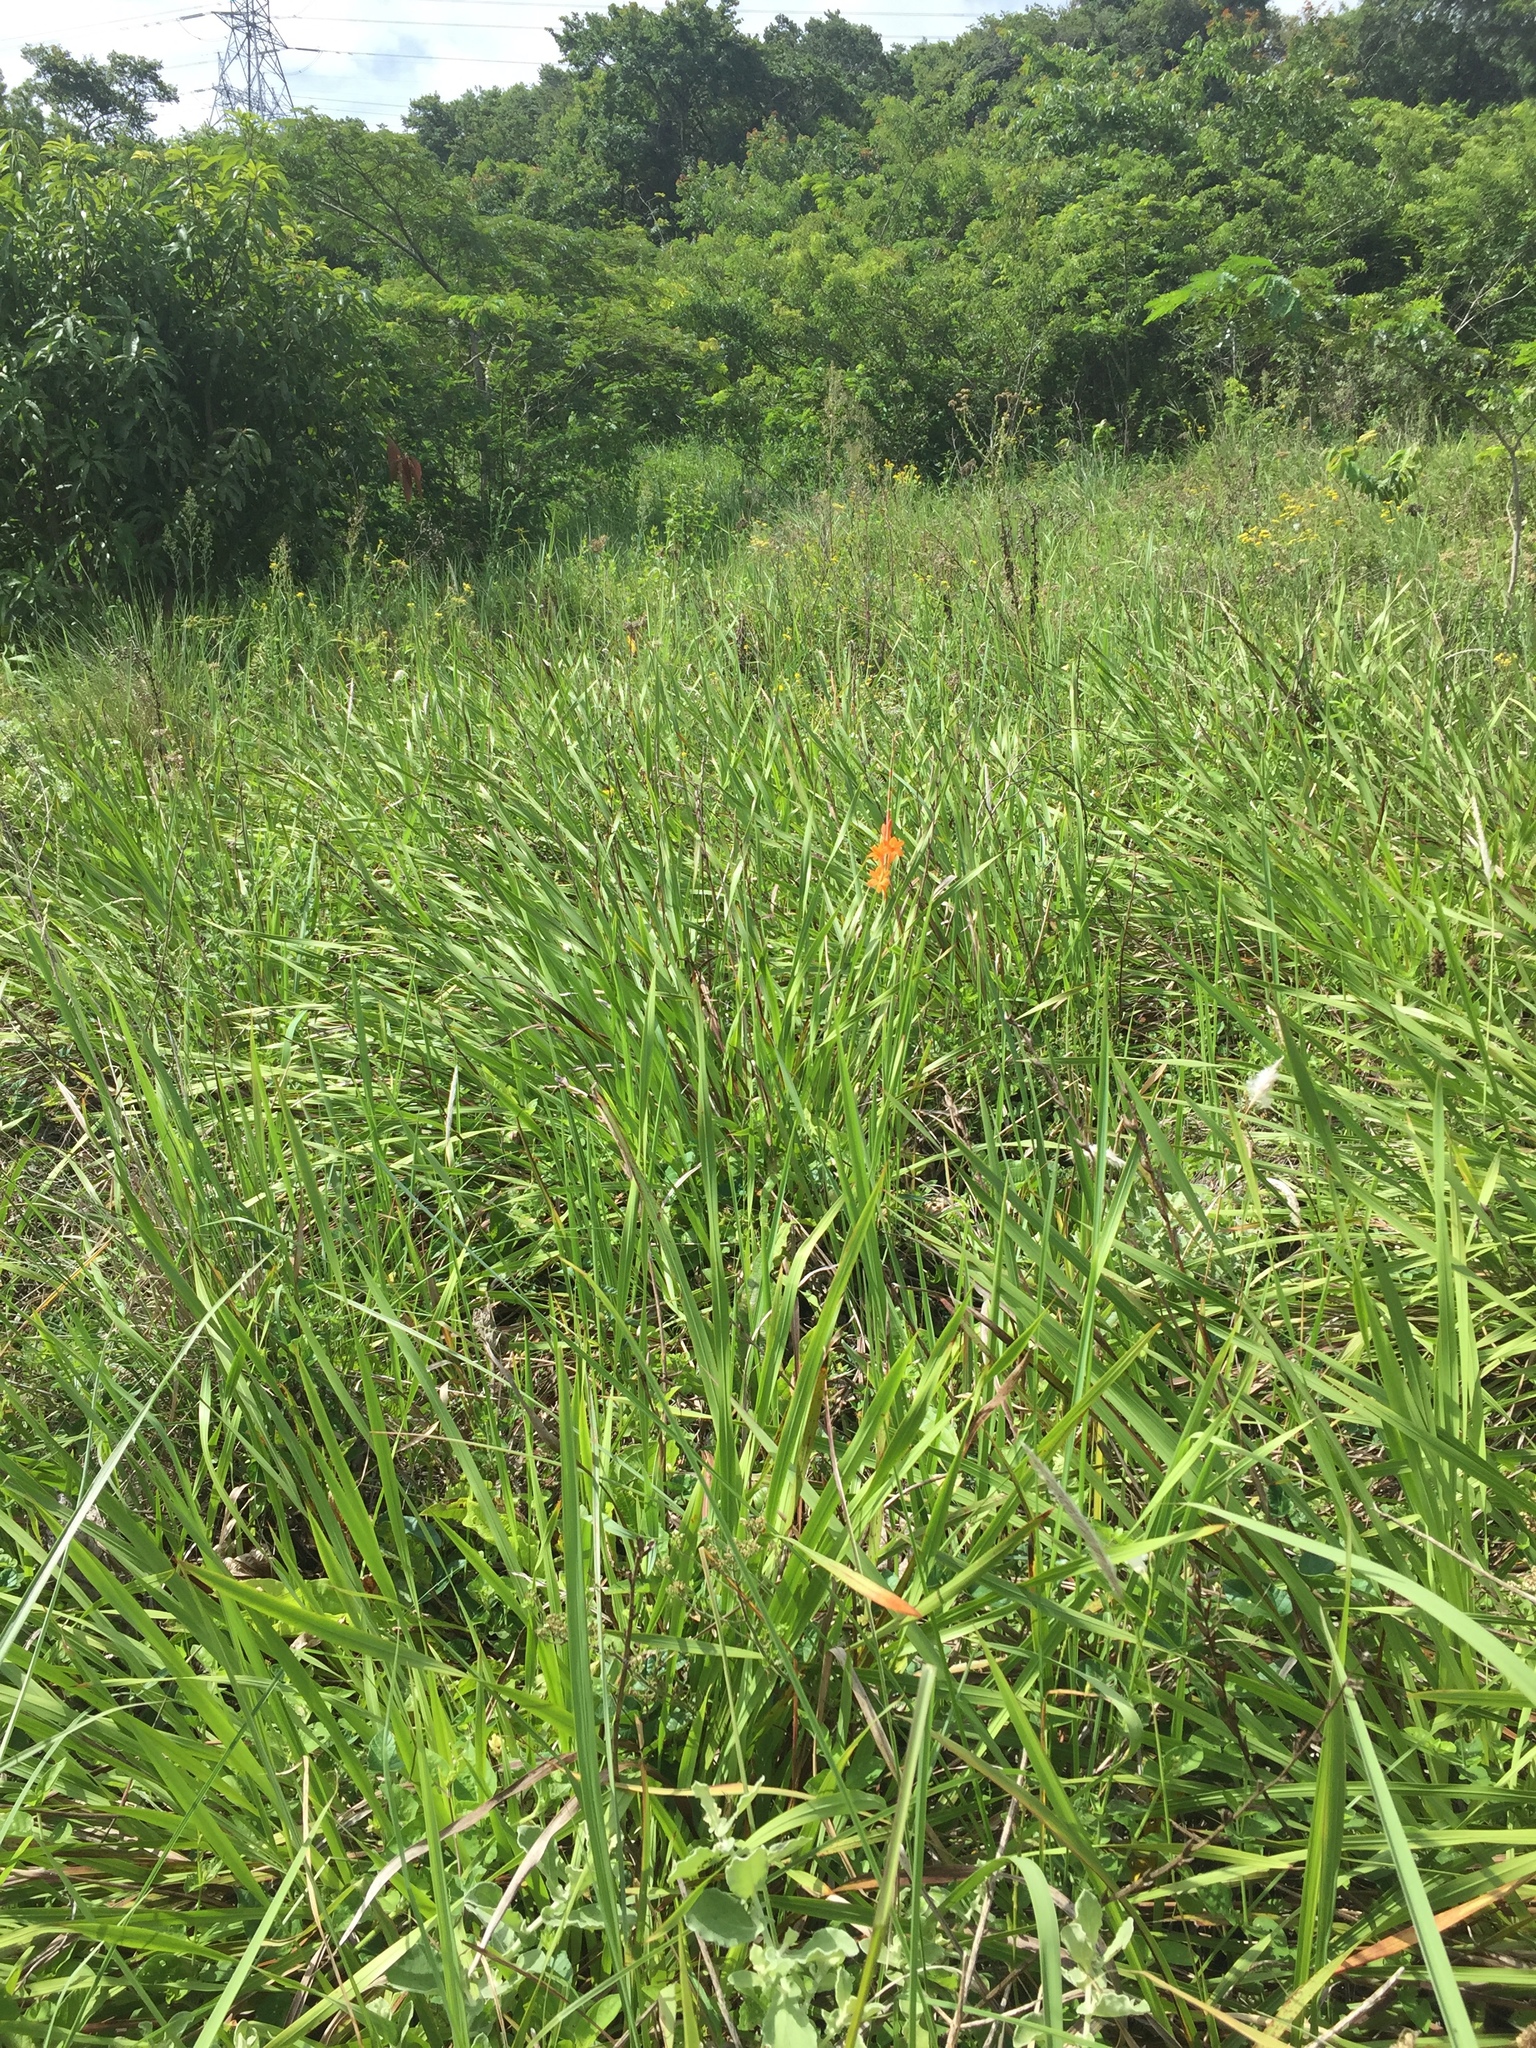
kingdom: Plantae
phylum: Tracheophyta
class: Liliopsida
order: Asparagales
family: Iridaceae
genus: Watsonia
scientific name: Watsonia pillansii
